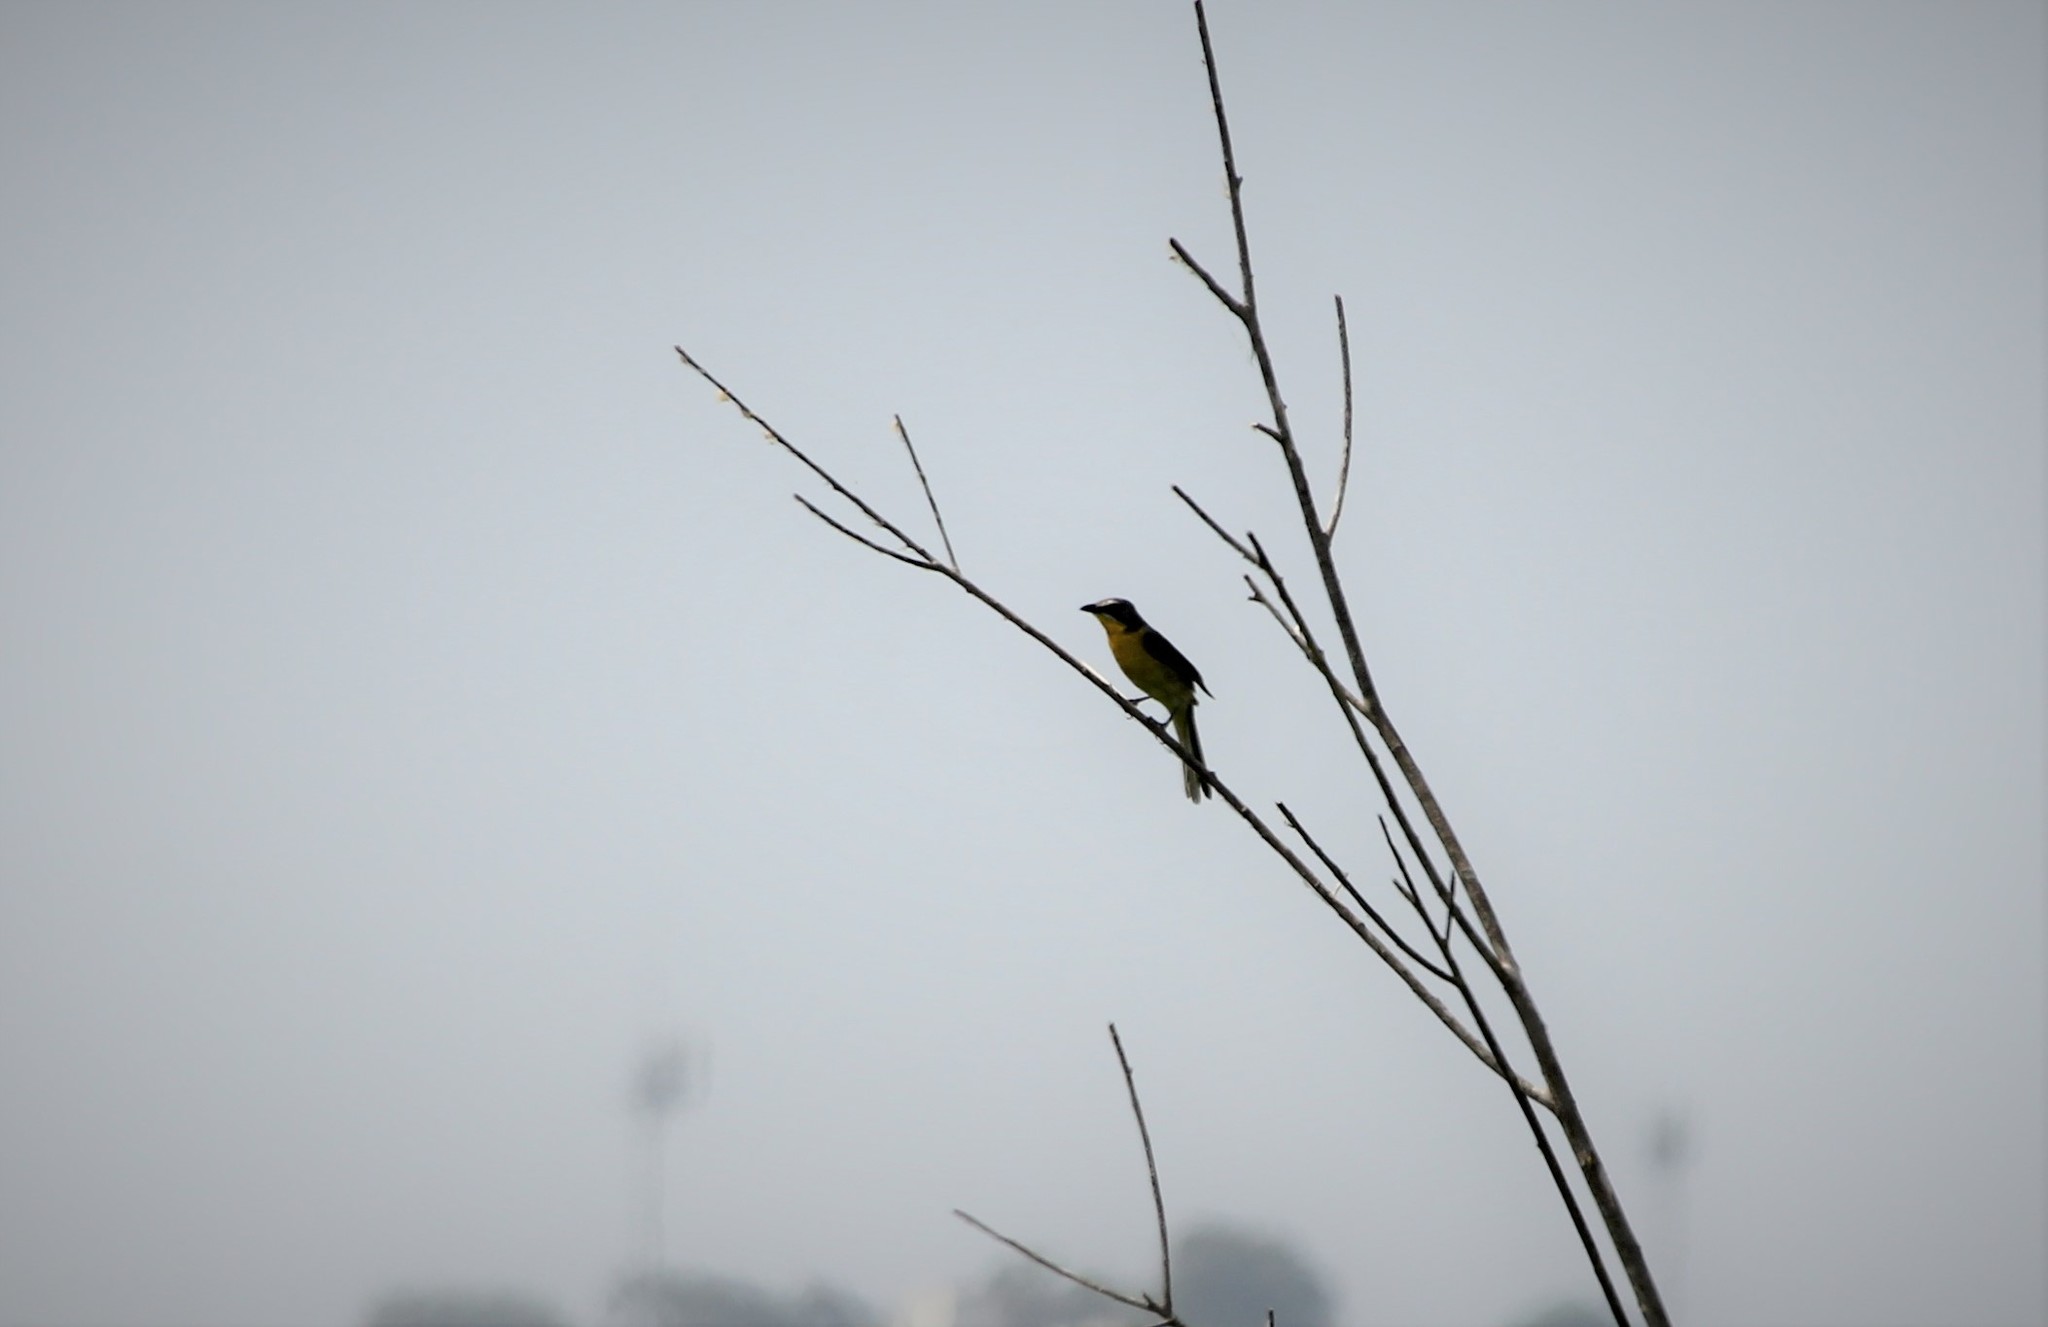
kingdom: Animalia
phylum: Chordata
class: Aves
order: Passeriformes
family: Parulidae
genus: Icteria
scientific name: Icteria virens
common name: Yellow-breasted chat
